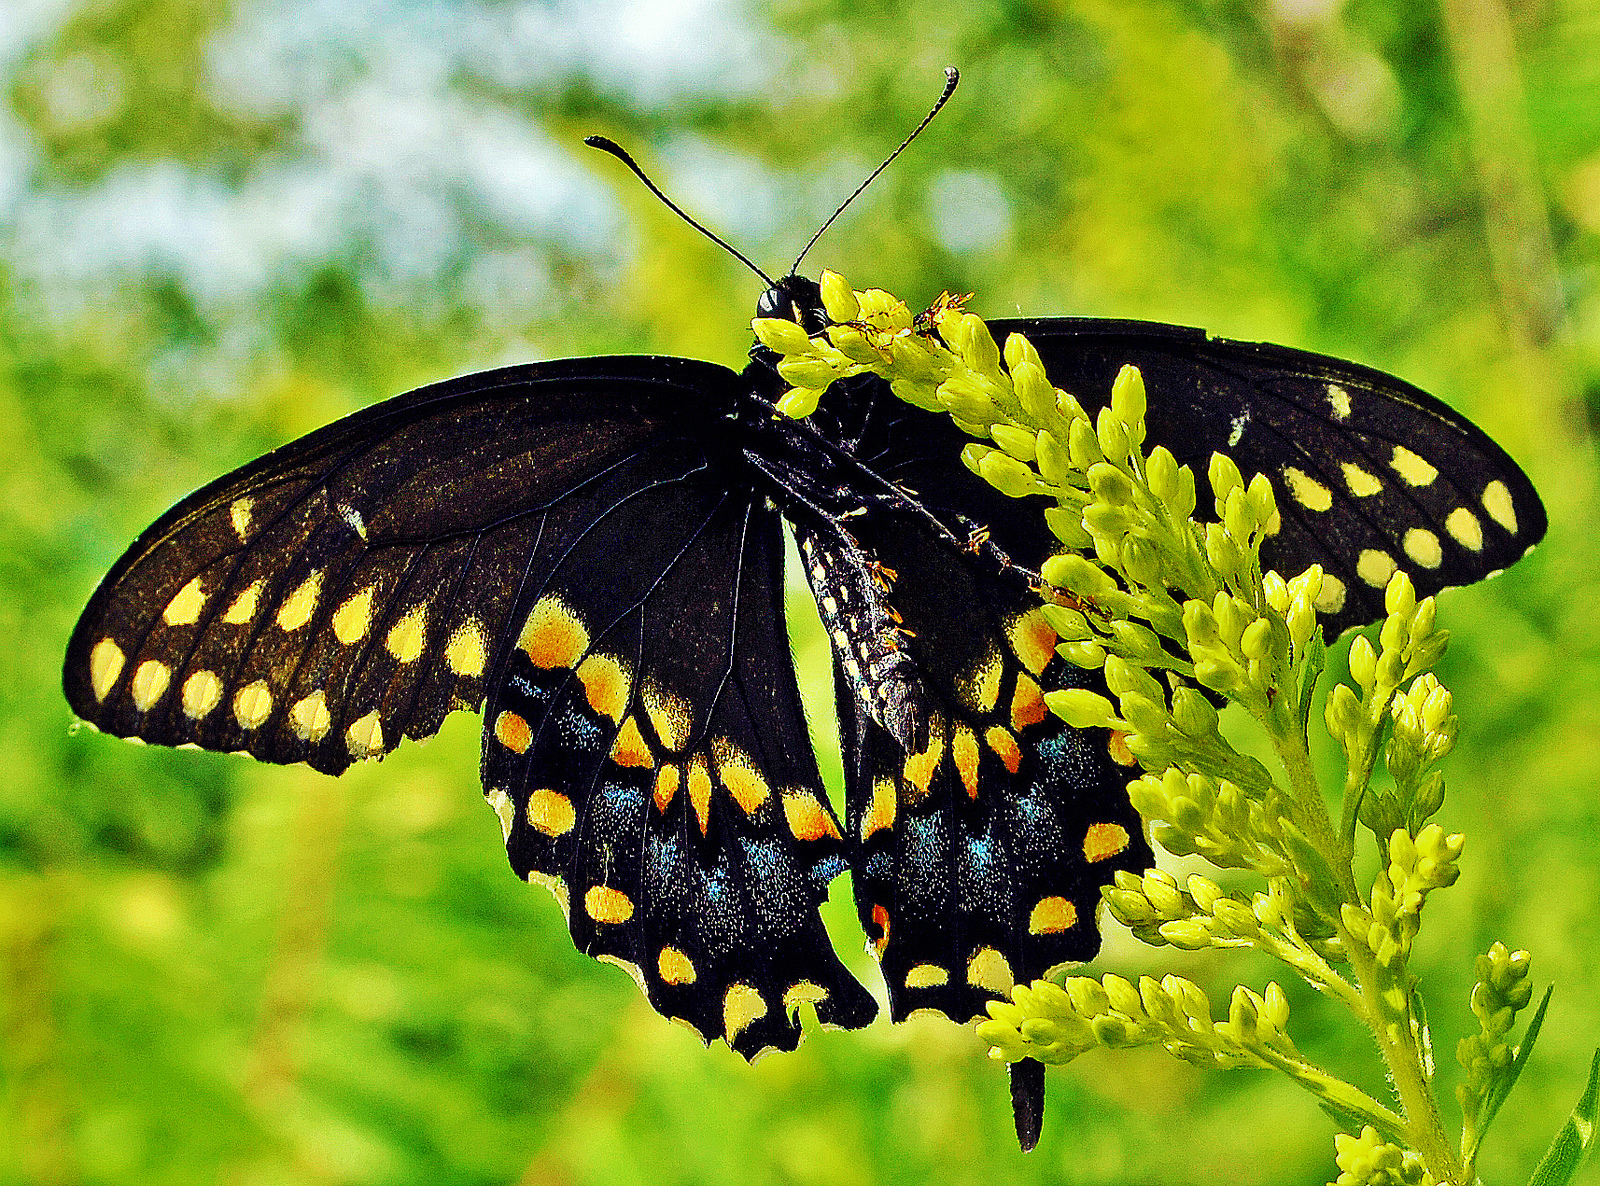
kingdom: Animalia
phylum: Arthropoda
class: Insecta
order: Lepidoptera
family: Papilionidae
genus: Papilio
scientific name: Papilio polyxenes
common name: Black swallowtail
